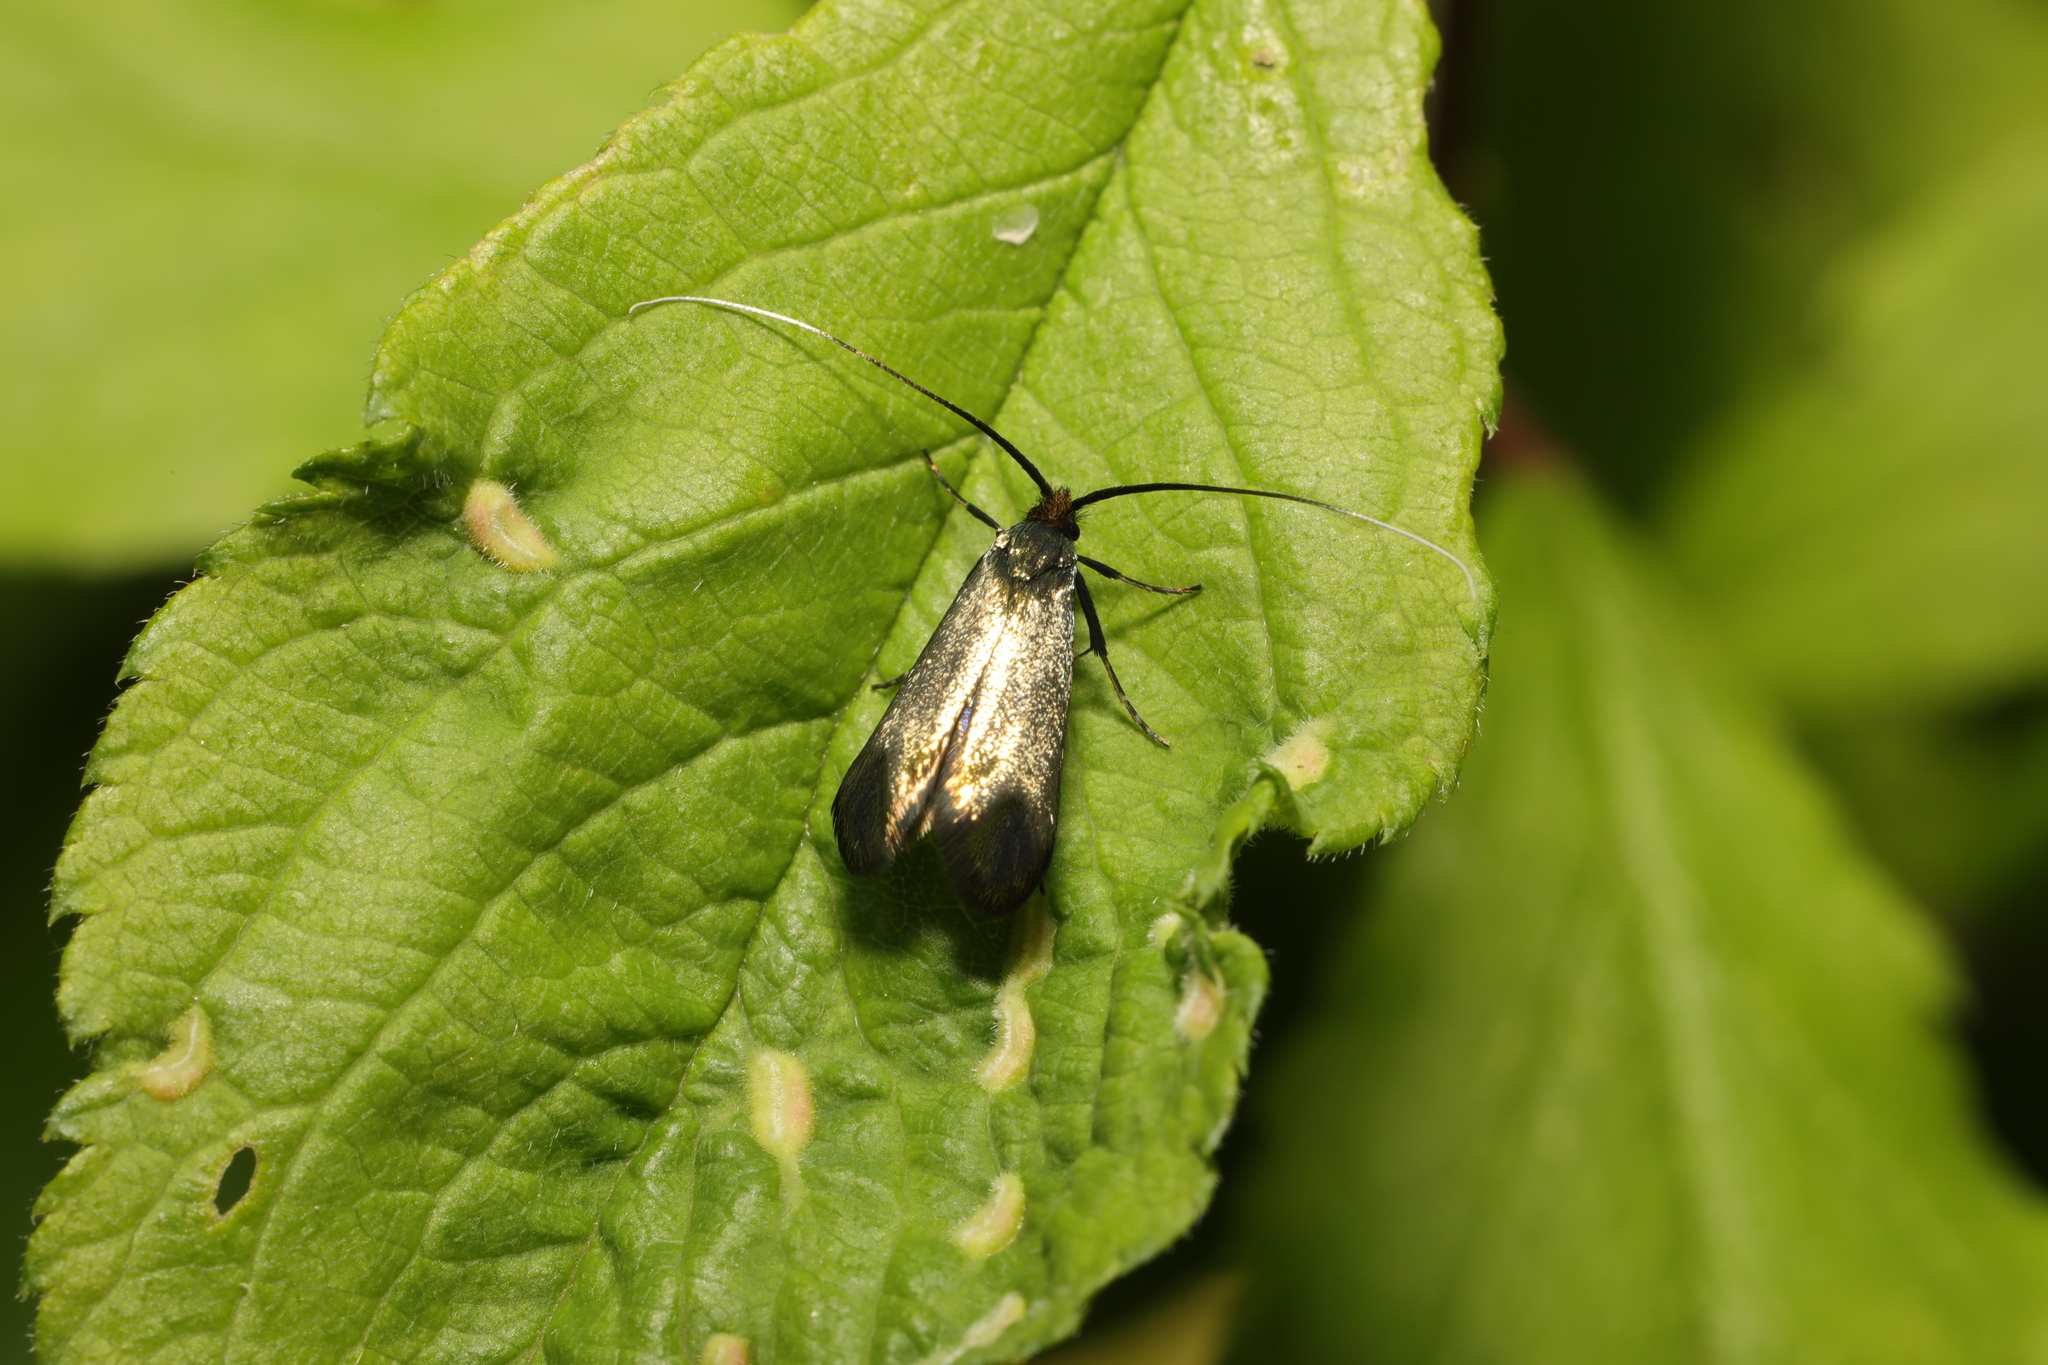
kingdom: Animalia
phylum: Arthropoda
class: Insecta
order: Lepidoptera
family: Adelidae
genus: Adela
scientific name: Adela viridella
